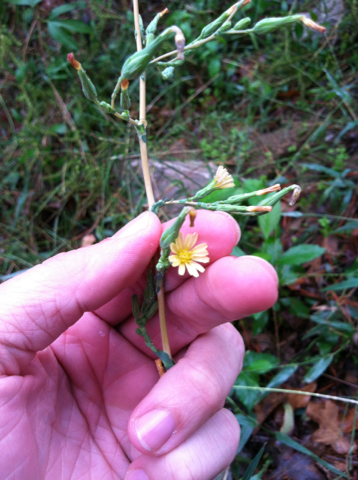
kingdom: Plantae
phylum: Tracheophyta
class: Magnoliopsida
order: Asterales
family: Asteraceae
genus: Lactuca
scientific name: Lactuca serriola
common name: Prickly lettuce
